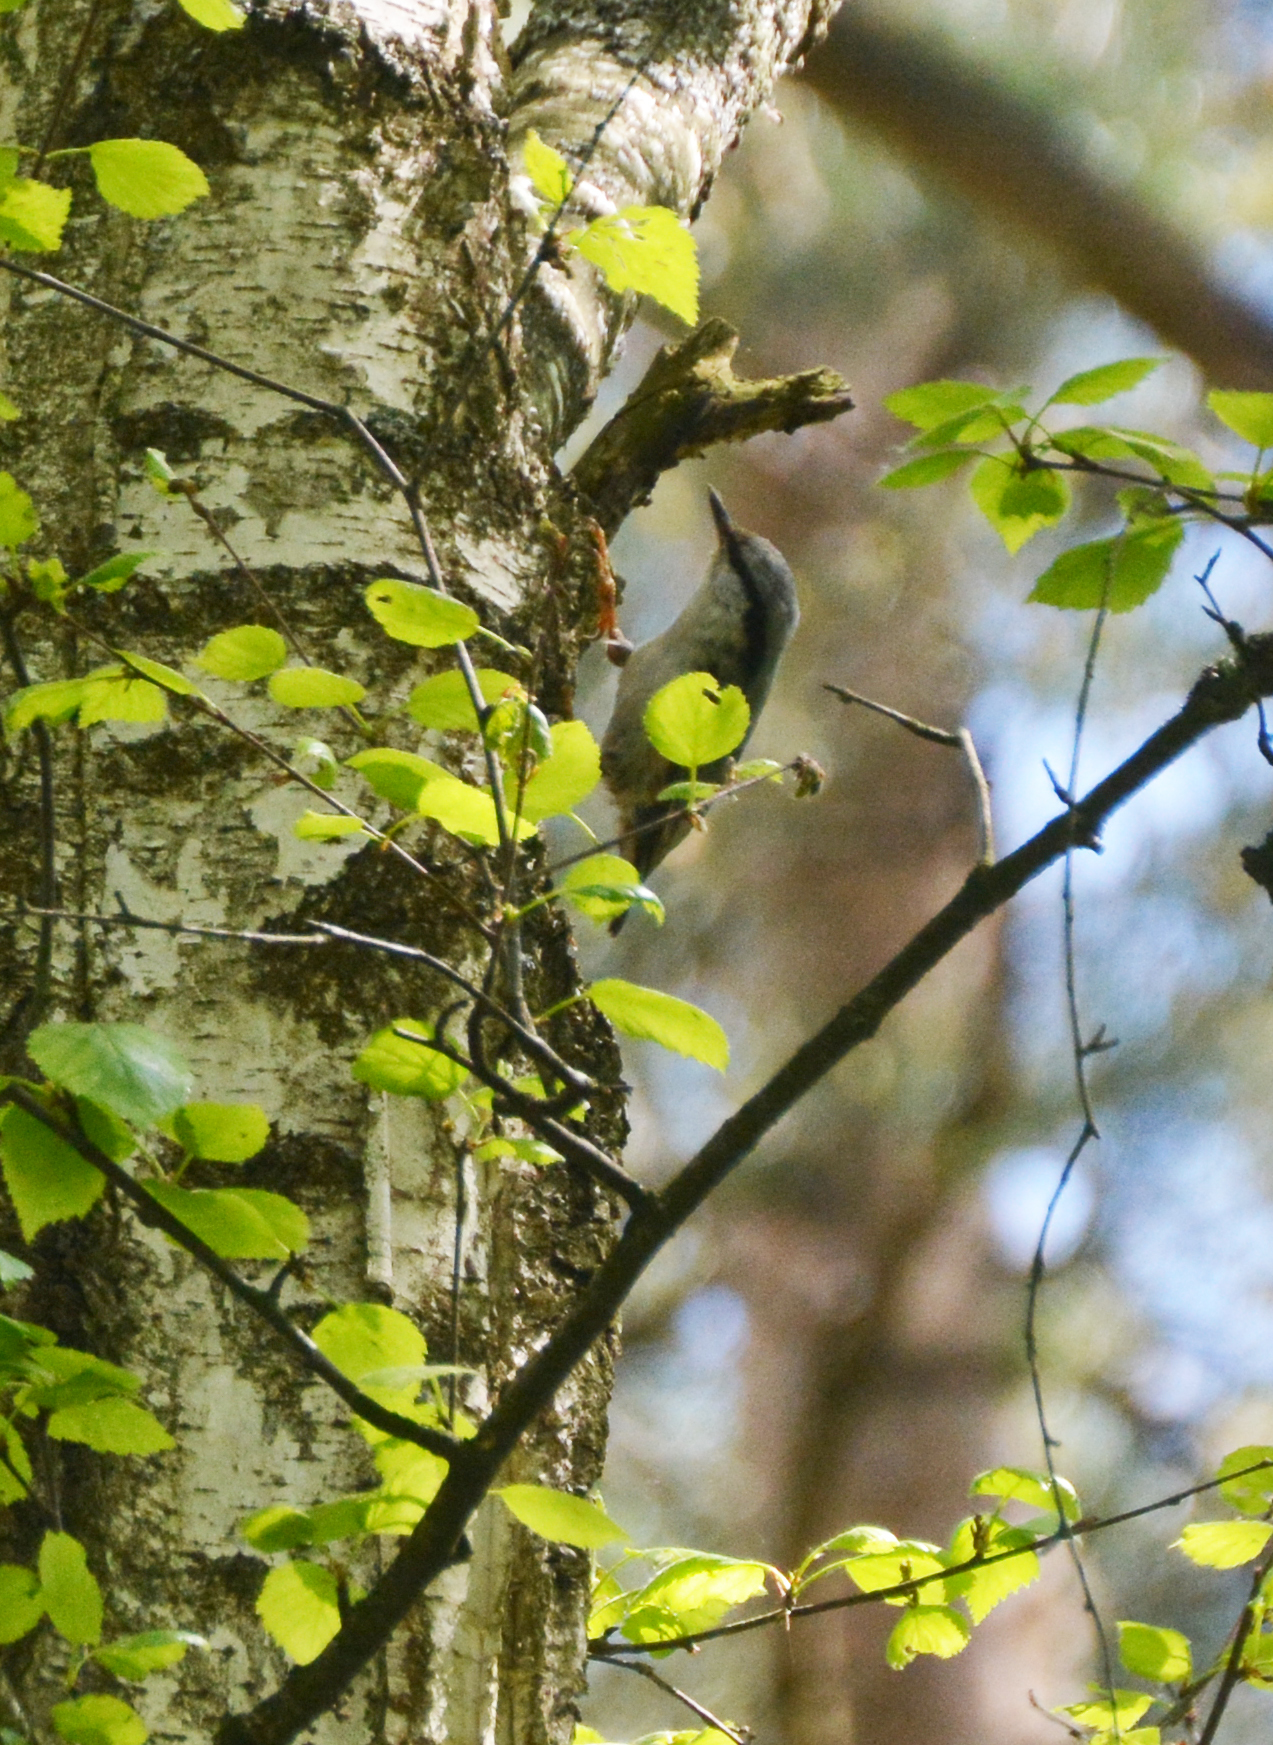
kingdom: Animalia
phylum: Chordata
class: Aves
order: Passeriformes
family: Sittidae
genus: Sitta
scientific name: Sitta europaea
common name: Eurasian nuthatch
